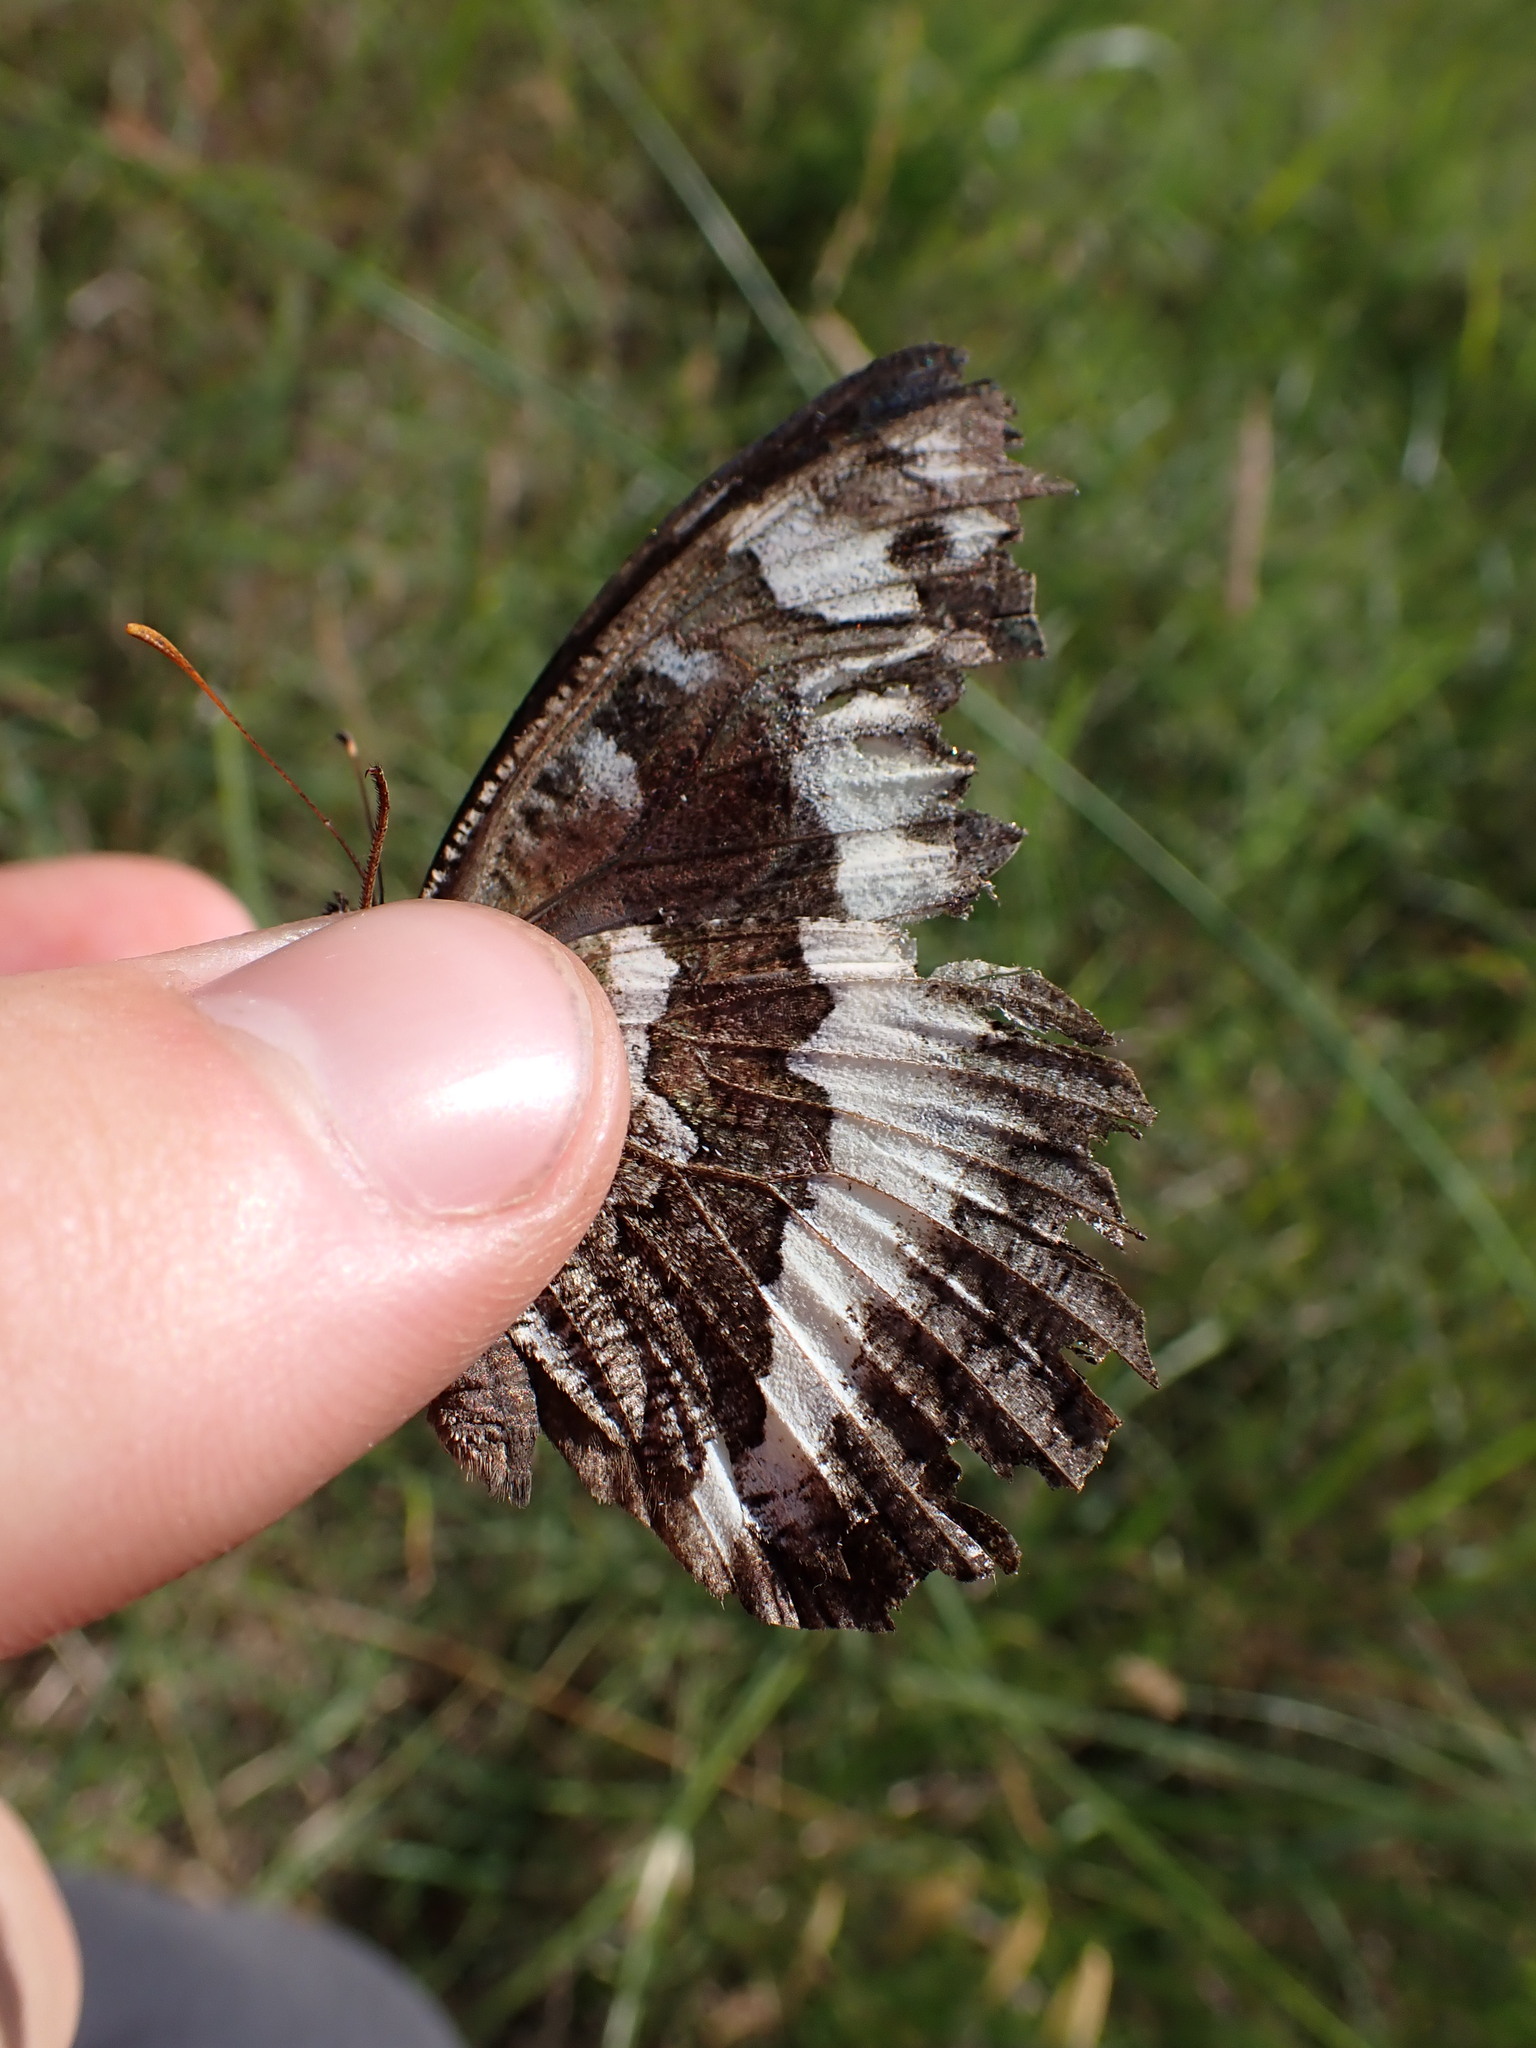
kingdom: Animalia
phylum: Arthropoda
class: Insecta
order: Lepidoptera
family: Lycaenidae
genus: Loweia
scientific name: Loweia tityrus
